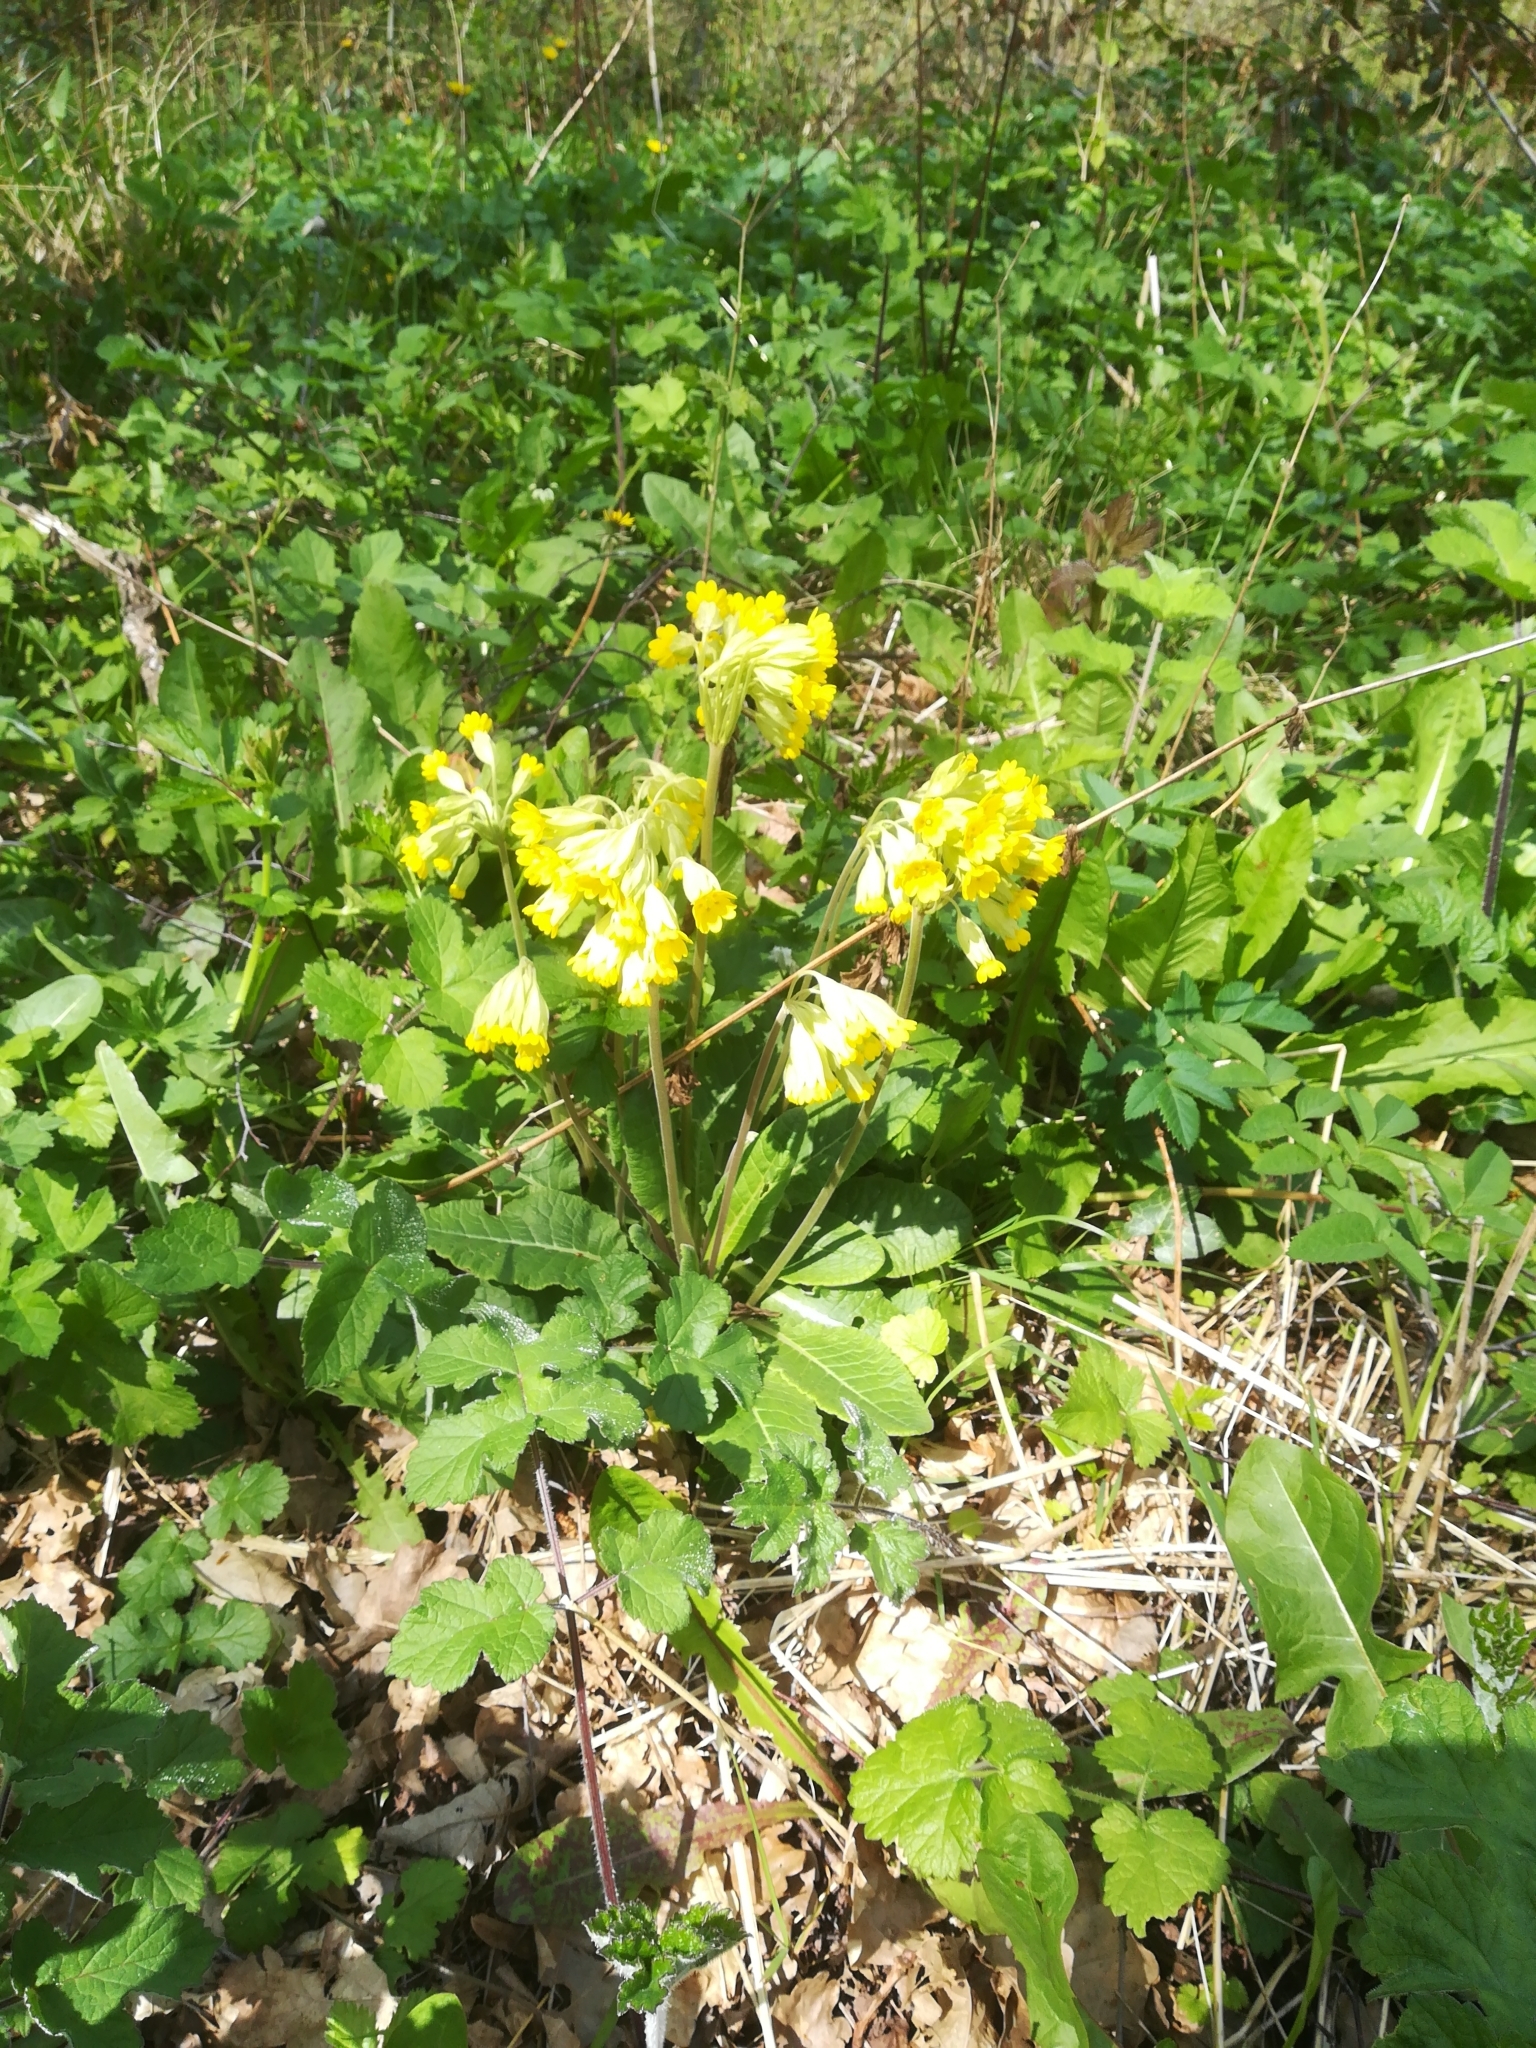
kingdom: Plantae
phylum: Tracheophyta
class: Magnoliopsida
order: Ericales
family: Primulaceae
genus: Primula
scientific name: Primula veris
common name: Cowslip
